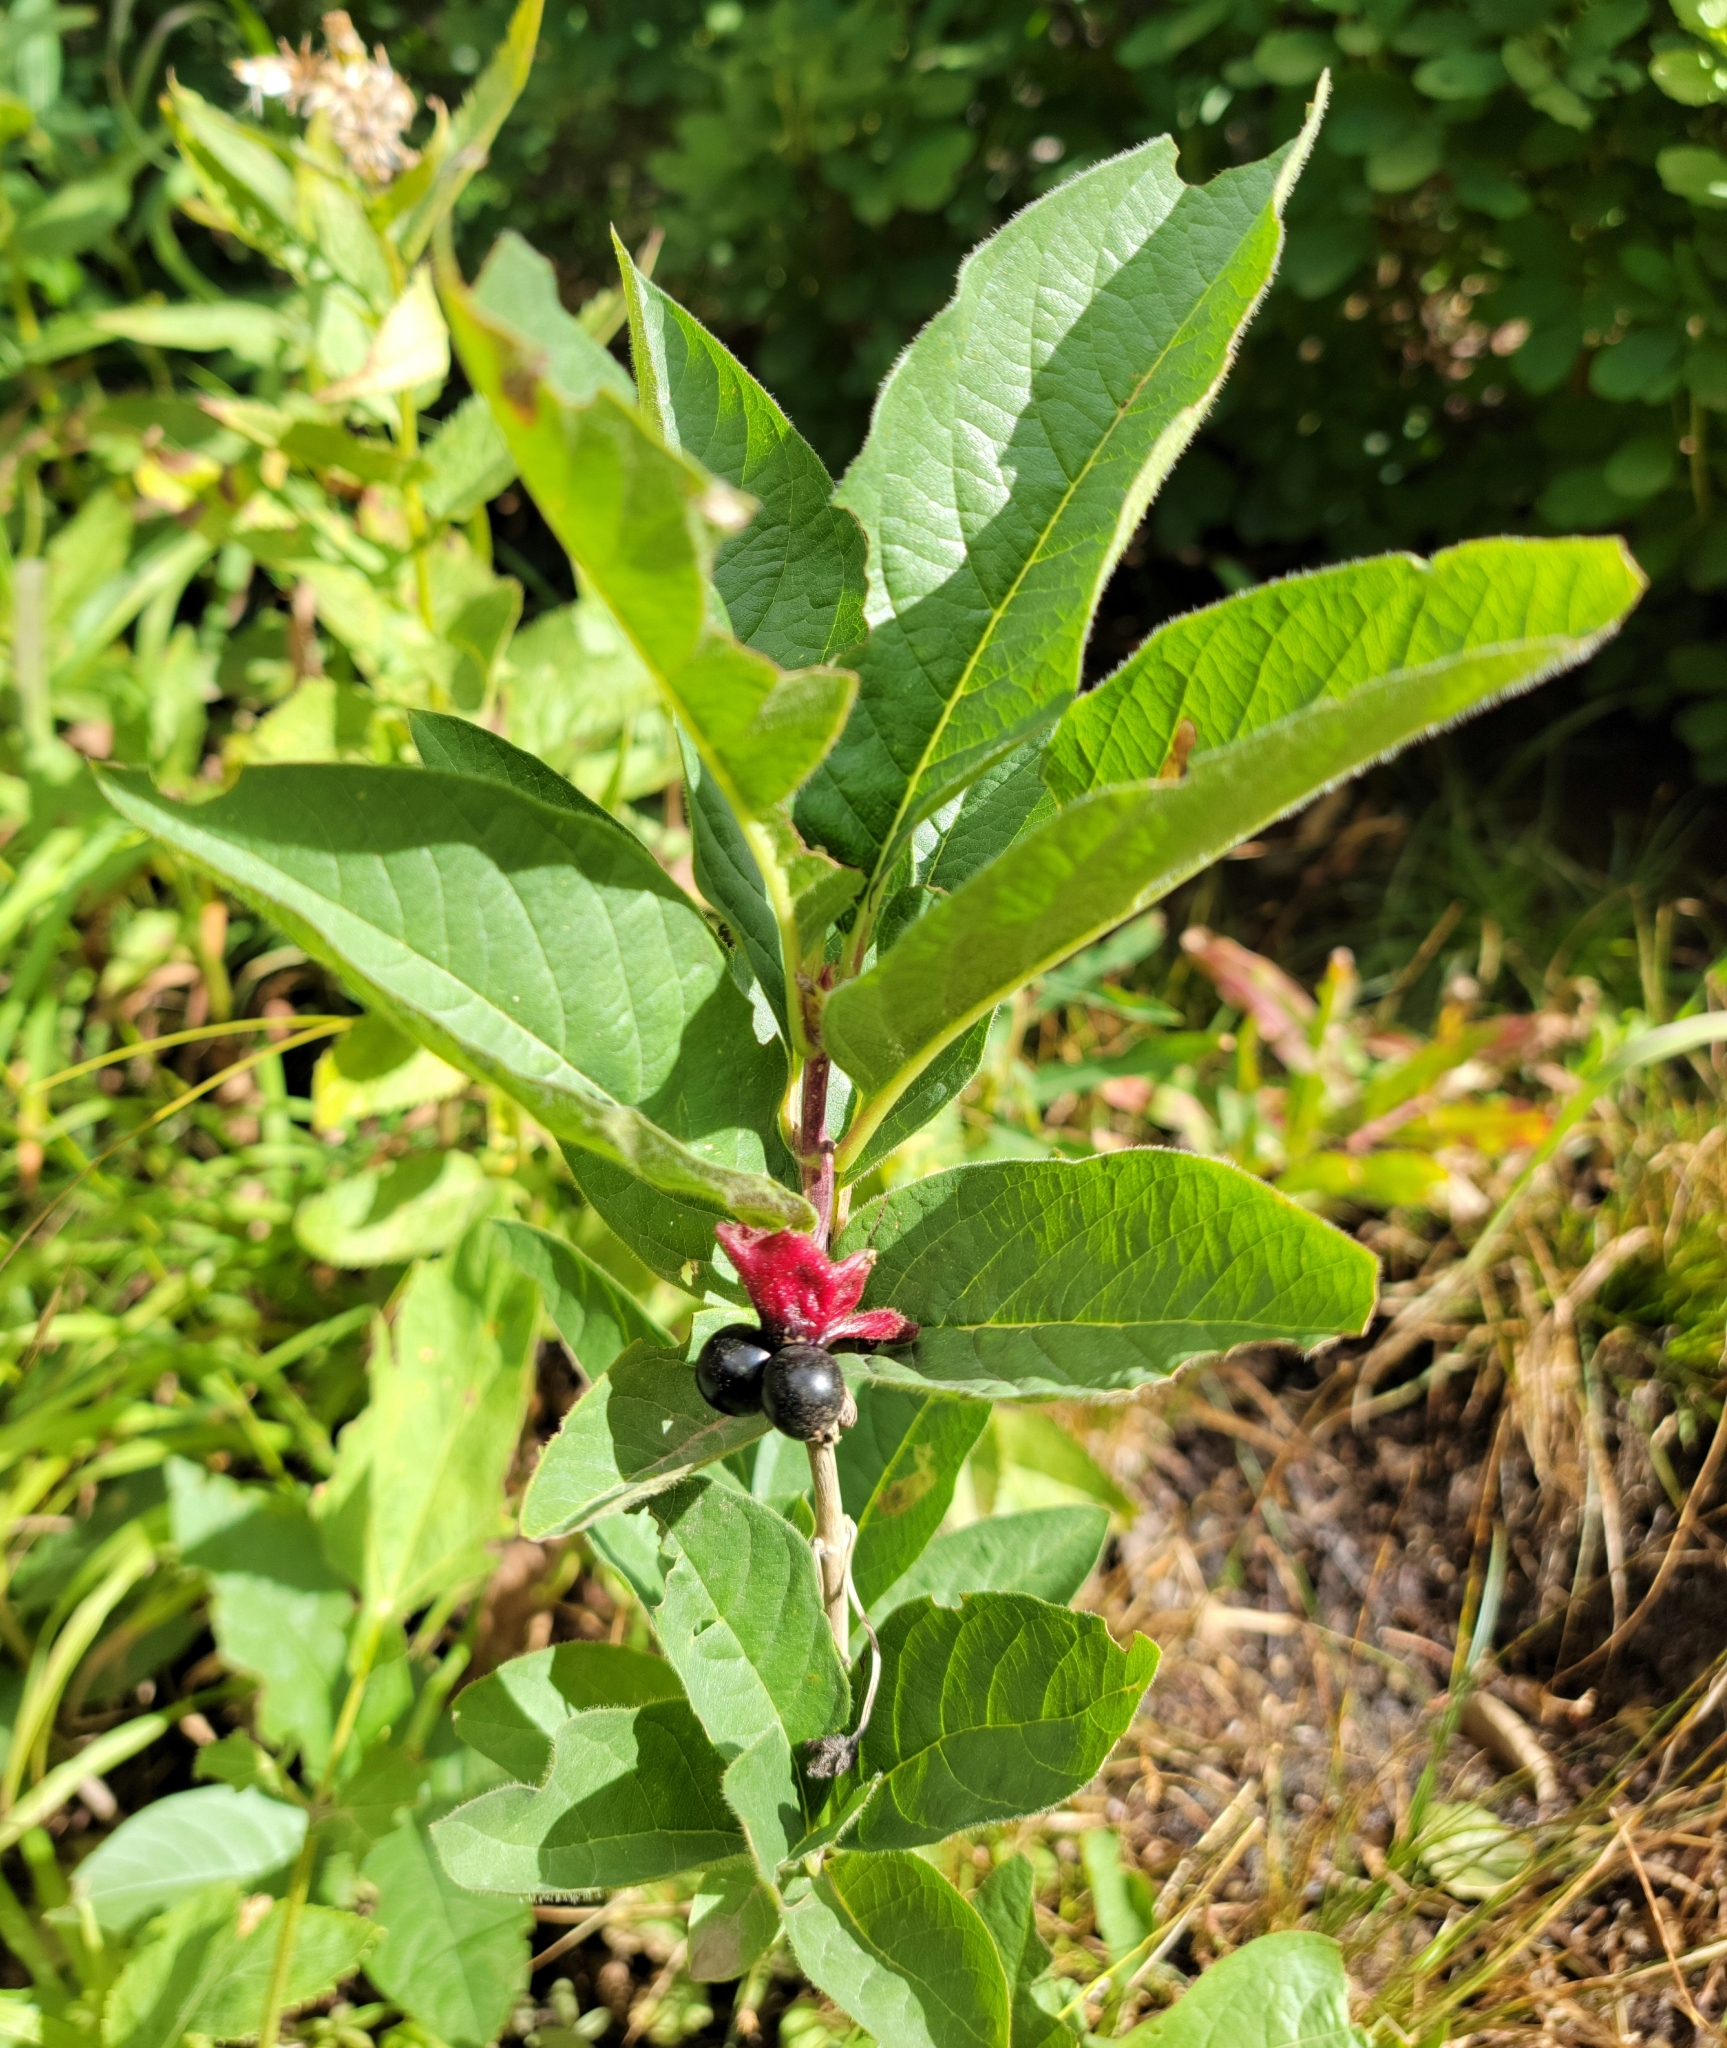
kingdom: Plantae
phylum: Tracheophyta
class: Magnoliopsida
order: Dipsacales
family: Caprifoliaceae
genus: Lonicera
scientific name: Lonicera involucrata
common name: Californian honeysuckle
